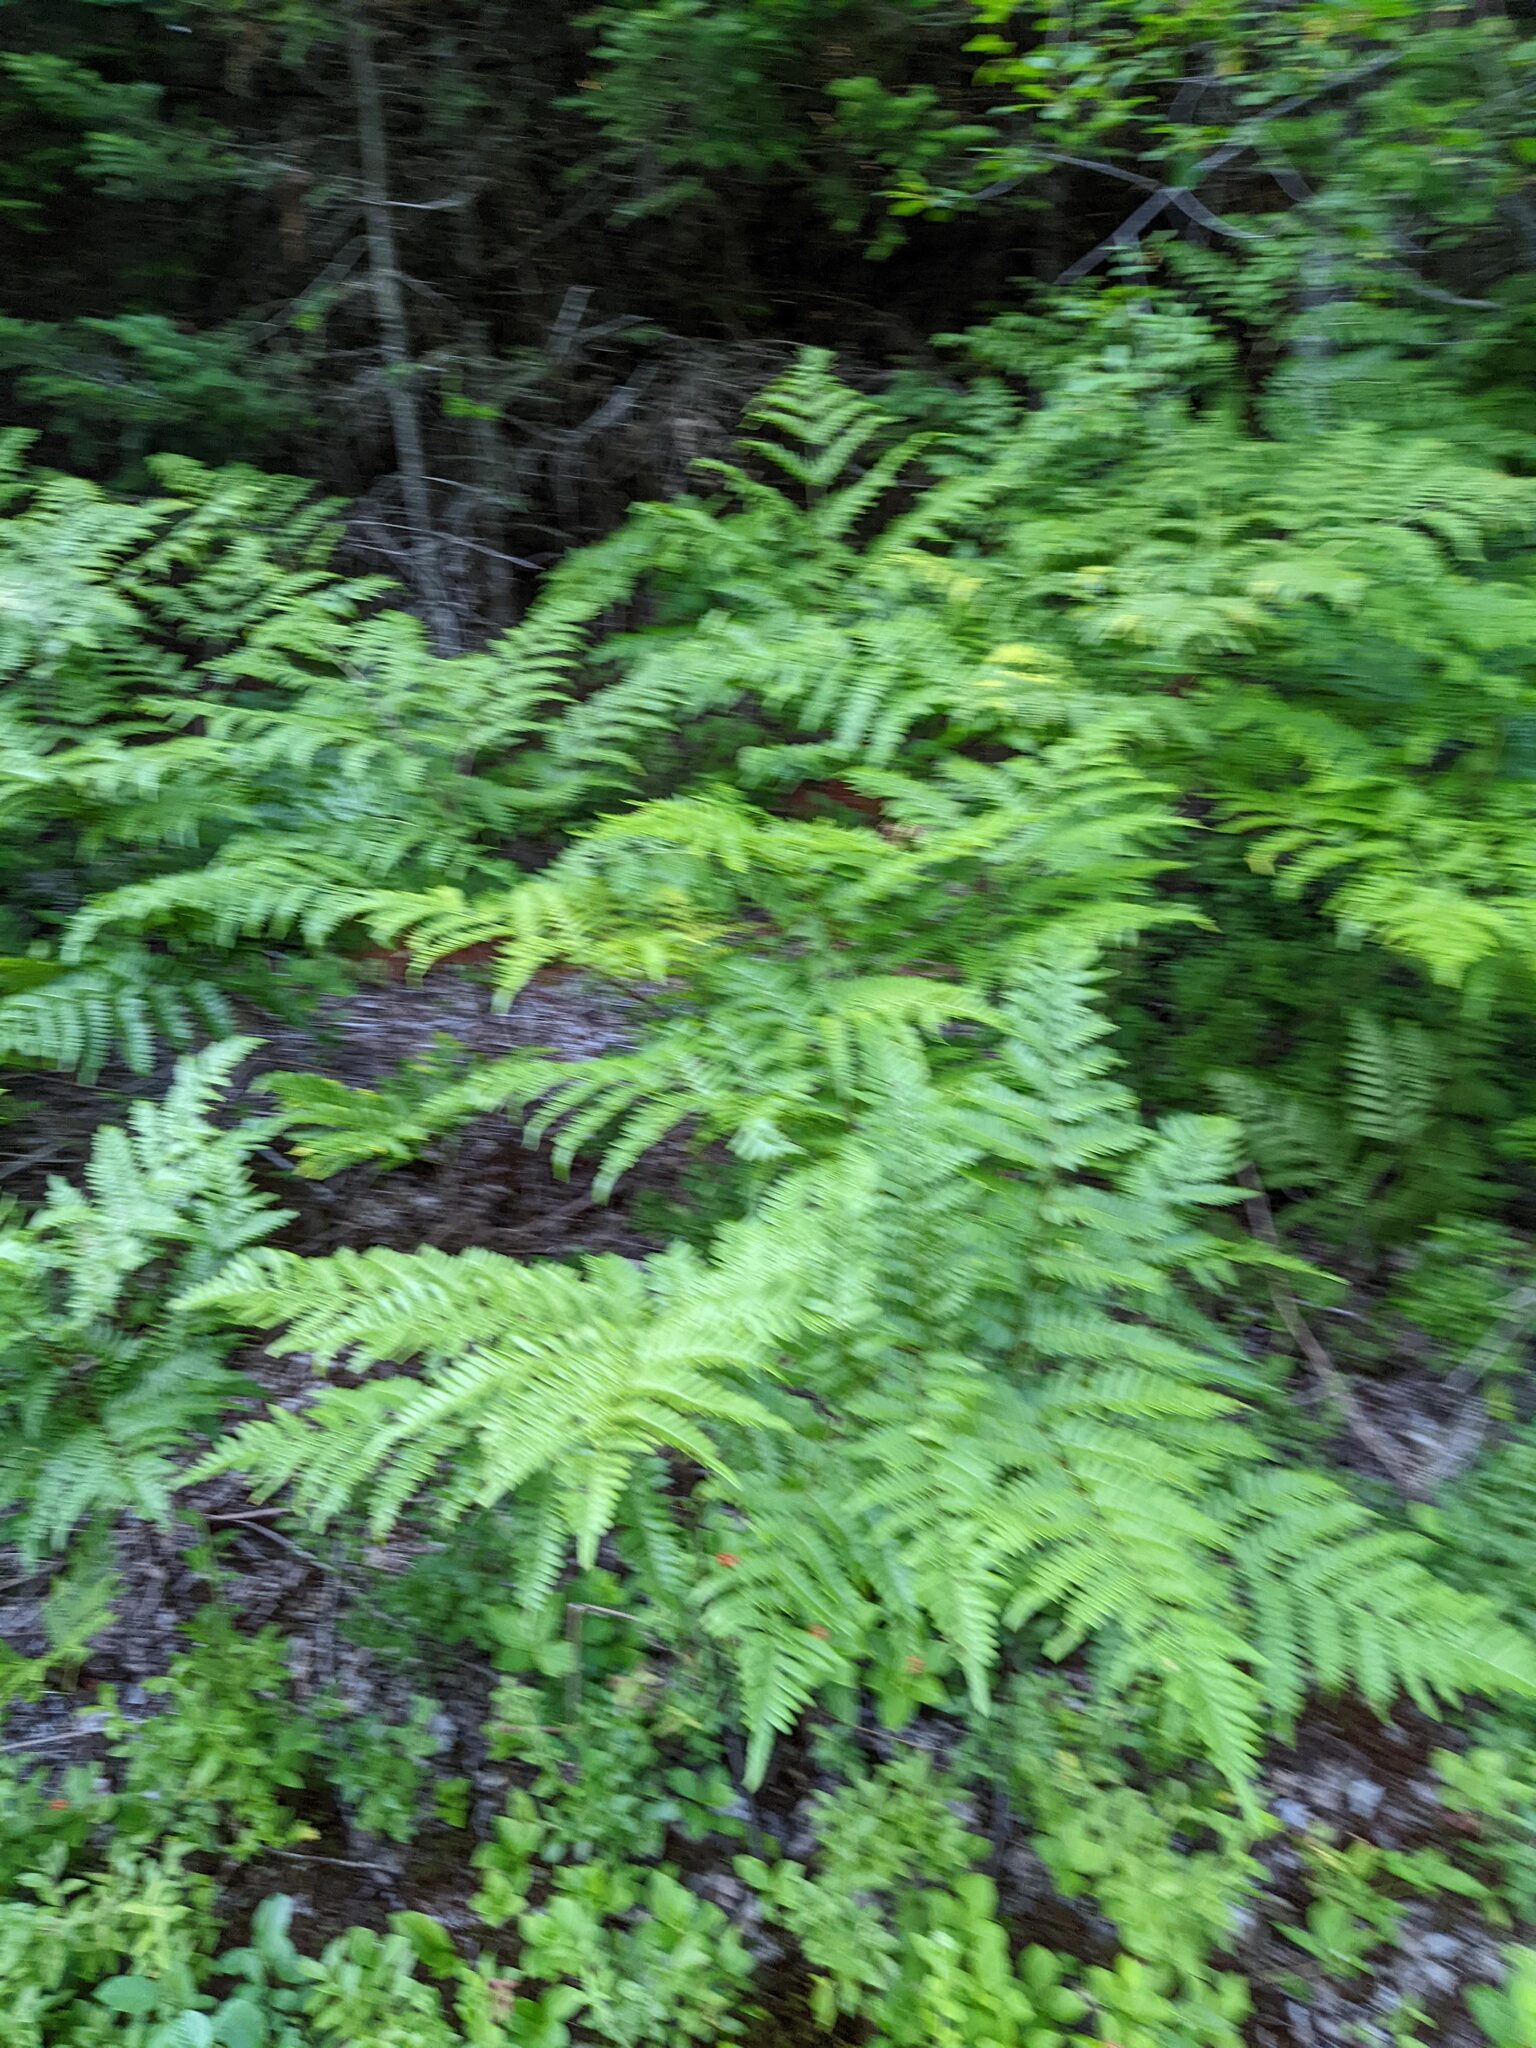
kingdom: Plantae
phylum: Tracheophyta
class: Polypodiopsida
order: Polypodiales
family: Dennstaedtiaceae
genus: Pteridium
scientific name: Pteridium aquilinum
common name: Bracken
